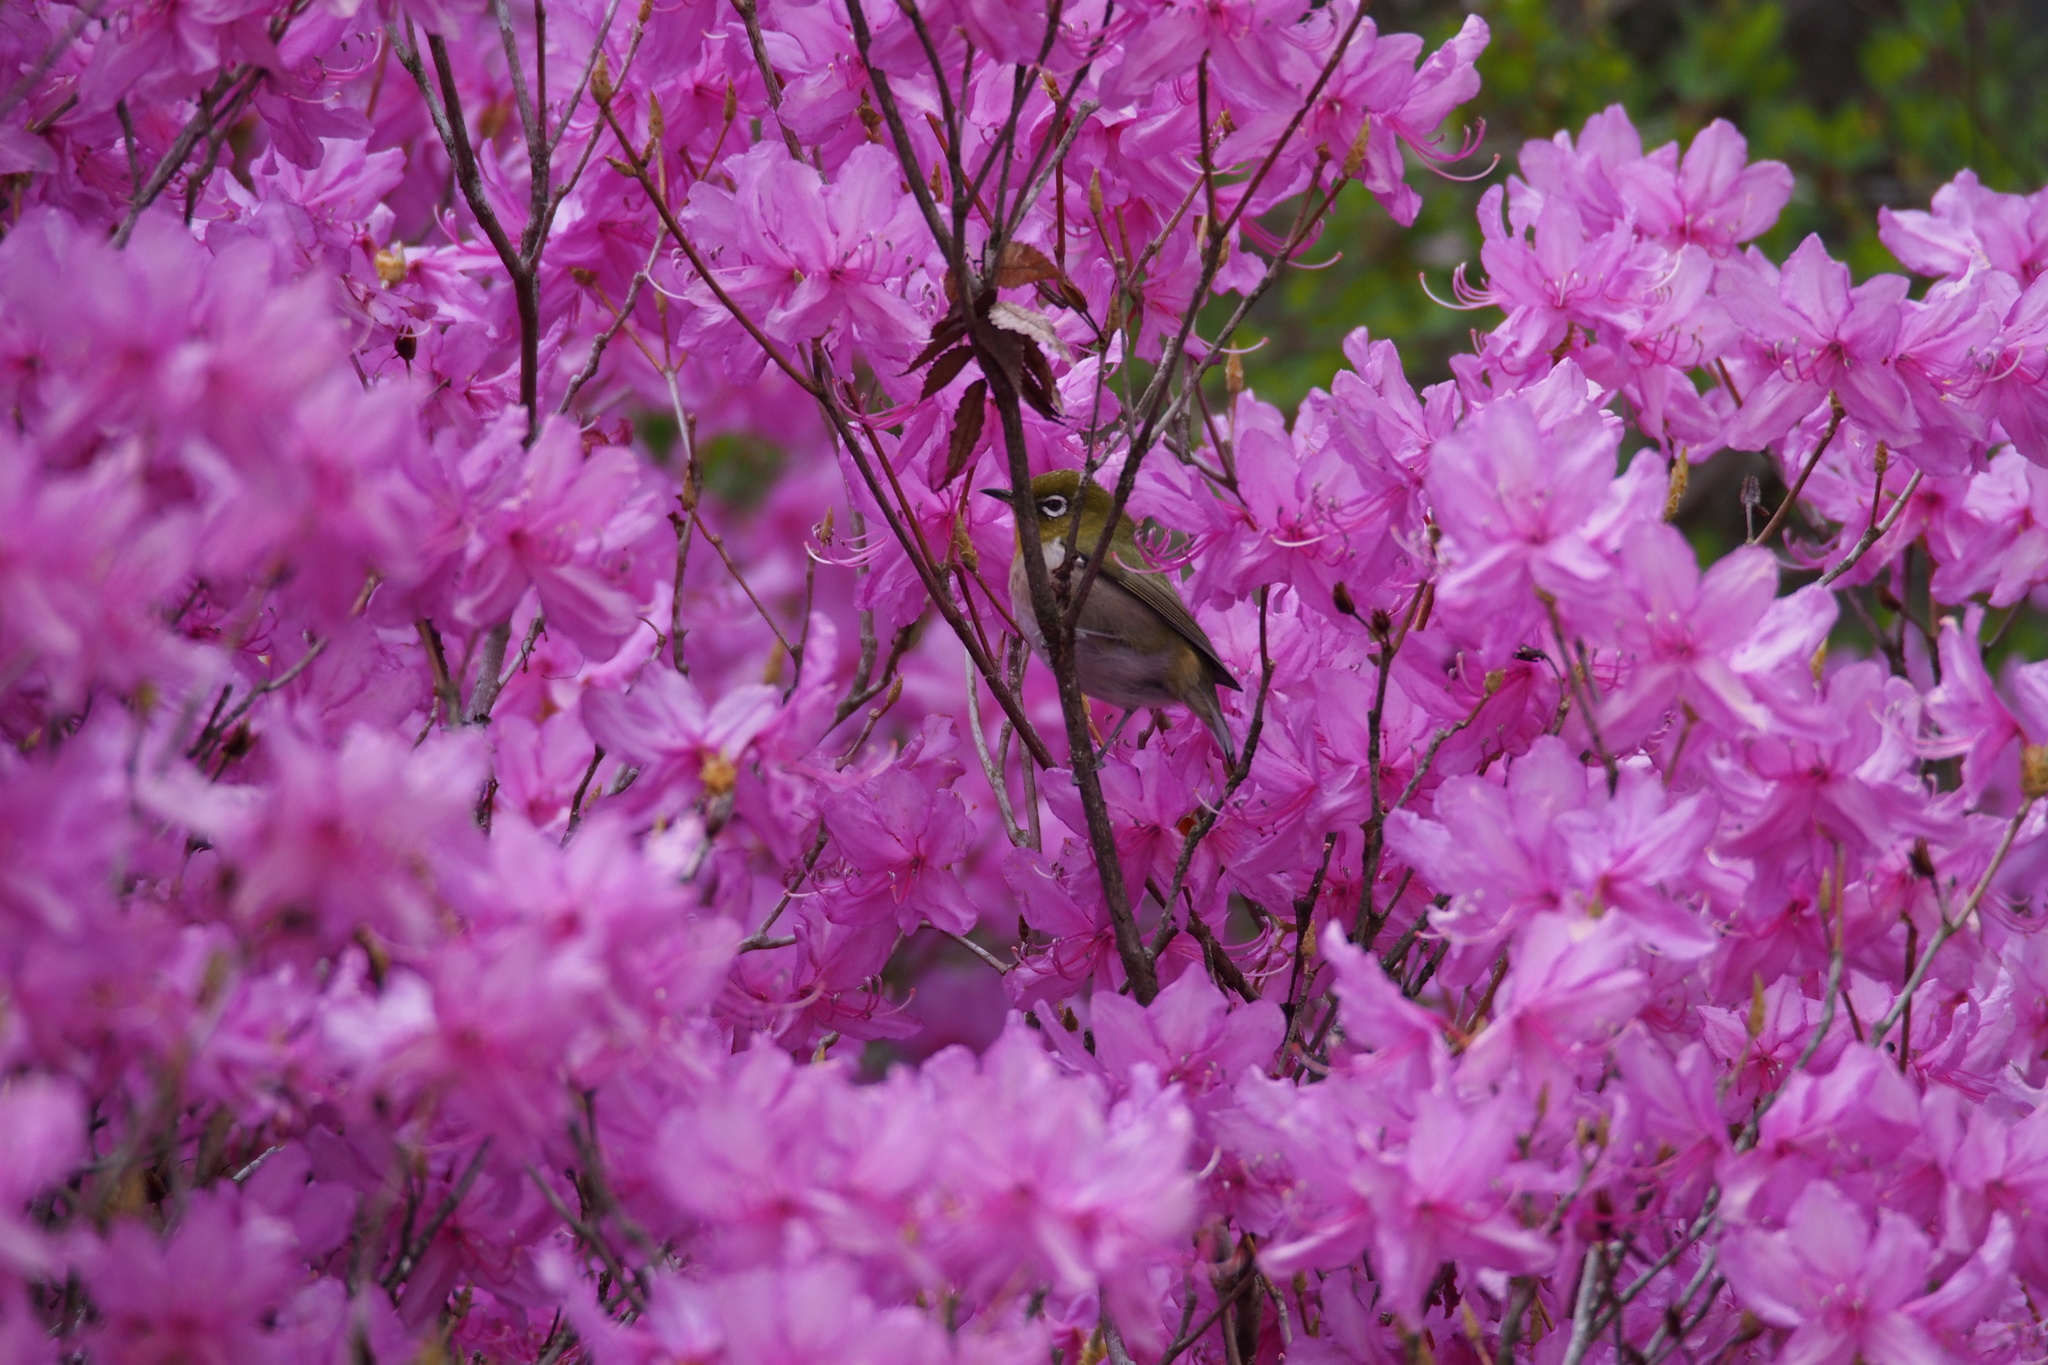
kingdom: Animalia
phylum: Chordata
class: Aves
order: Passeriformes
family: Zosteropidae
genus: Zosterops
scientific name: Zosterops japonicus
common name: Japanese white-eye
